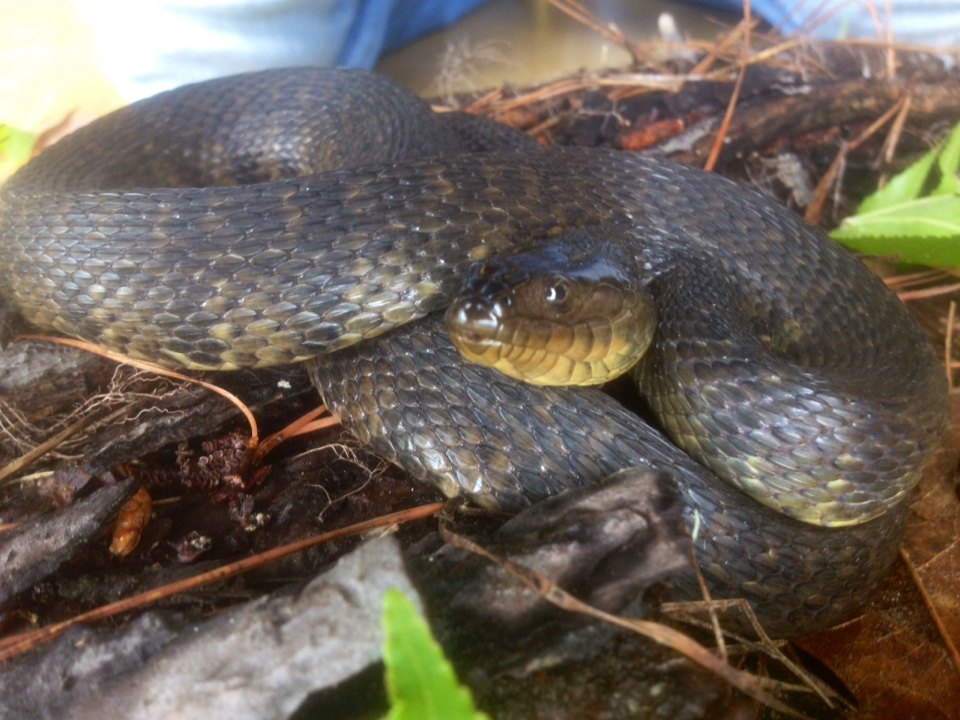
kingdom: Animalia
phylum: Chordata
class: Squamata
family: Colubridae
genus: Nerodia
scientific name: Nerodia cyclopion
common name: Mississippi green water snake
